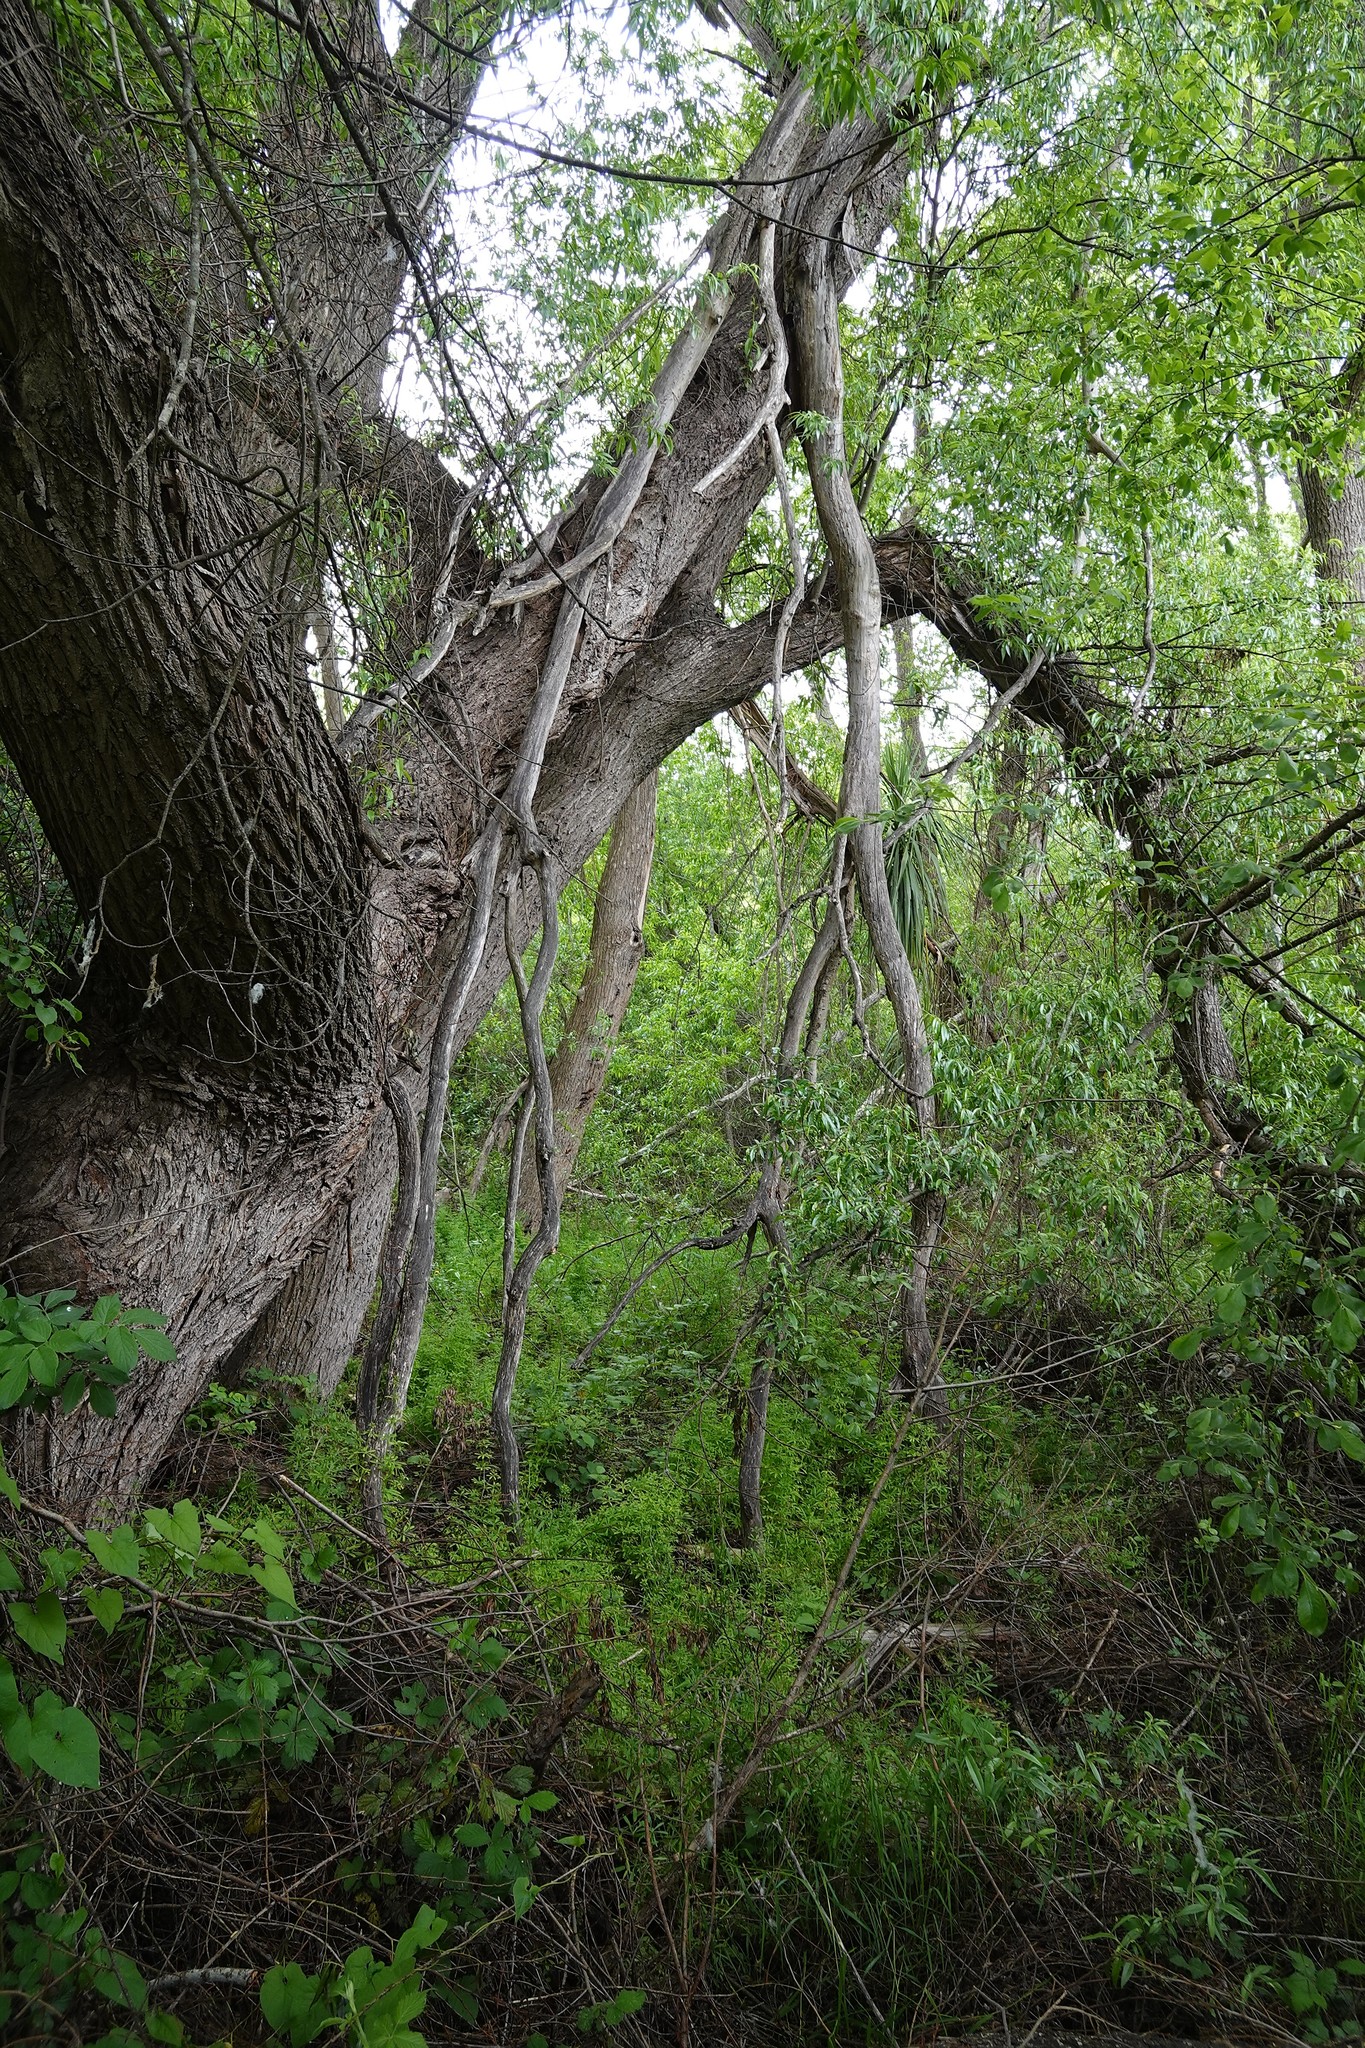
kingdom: Plantae
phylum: Tracheophyta
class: Magnoliopsida
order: Malpighiales
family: Salicaceae
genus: Salix
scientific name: Salix fragilis
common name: Crack willow
